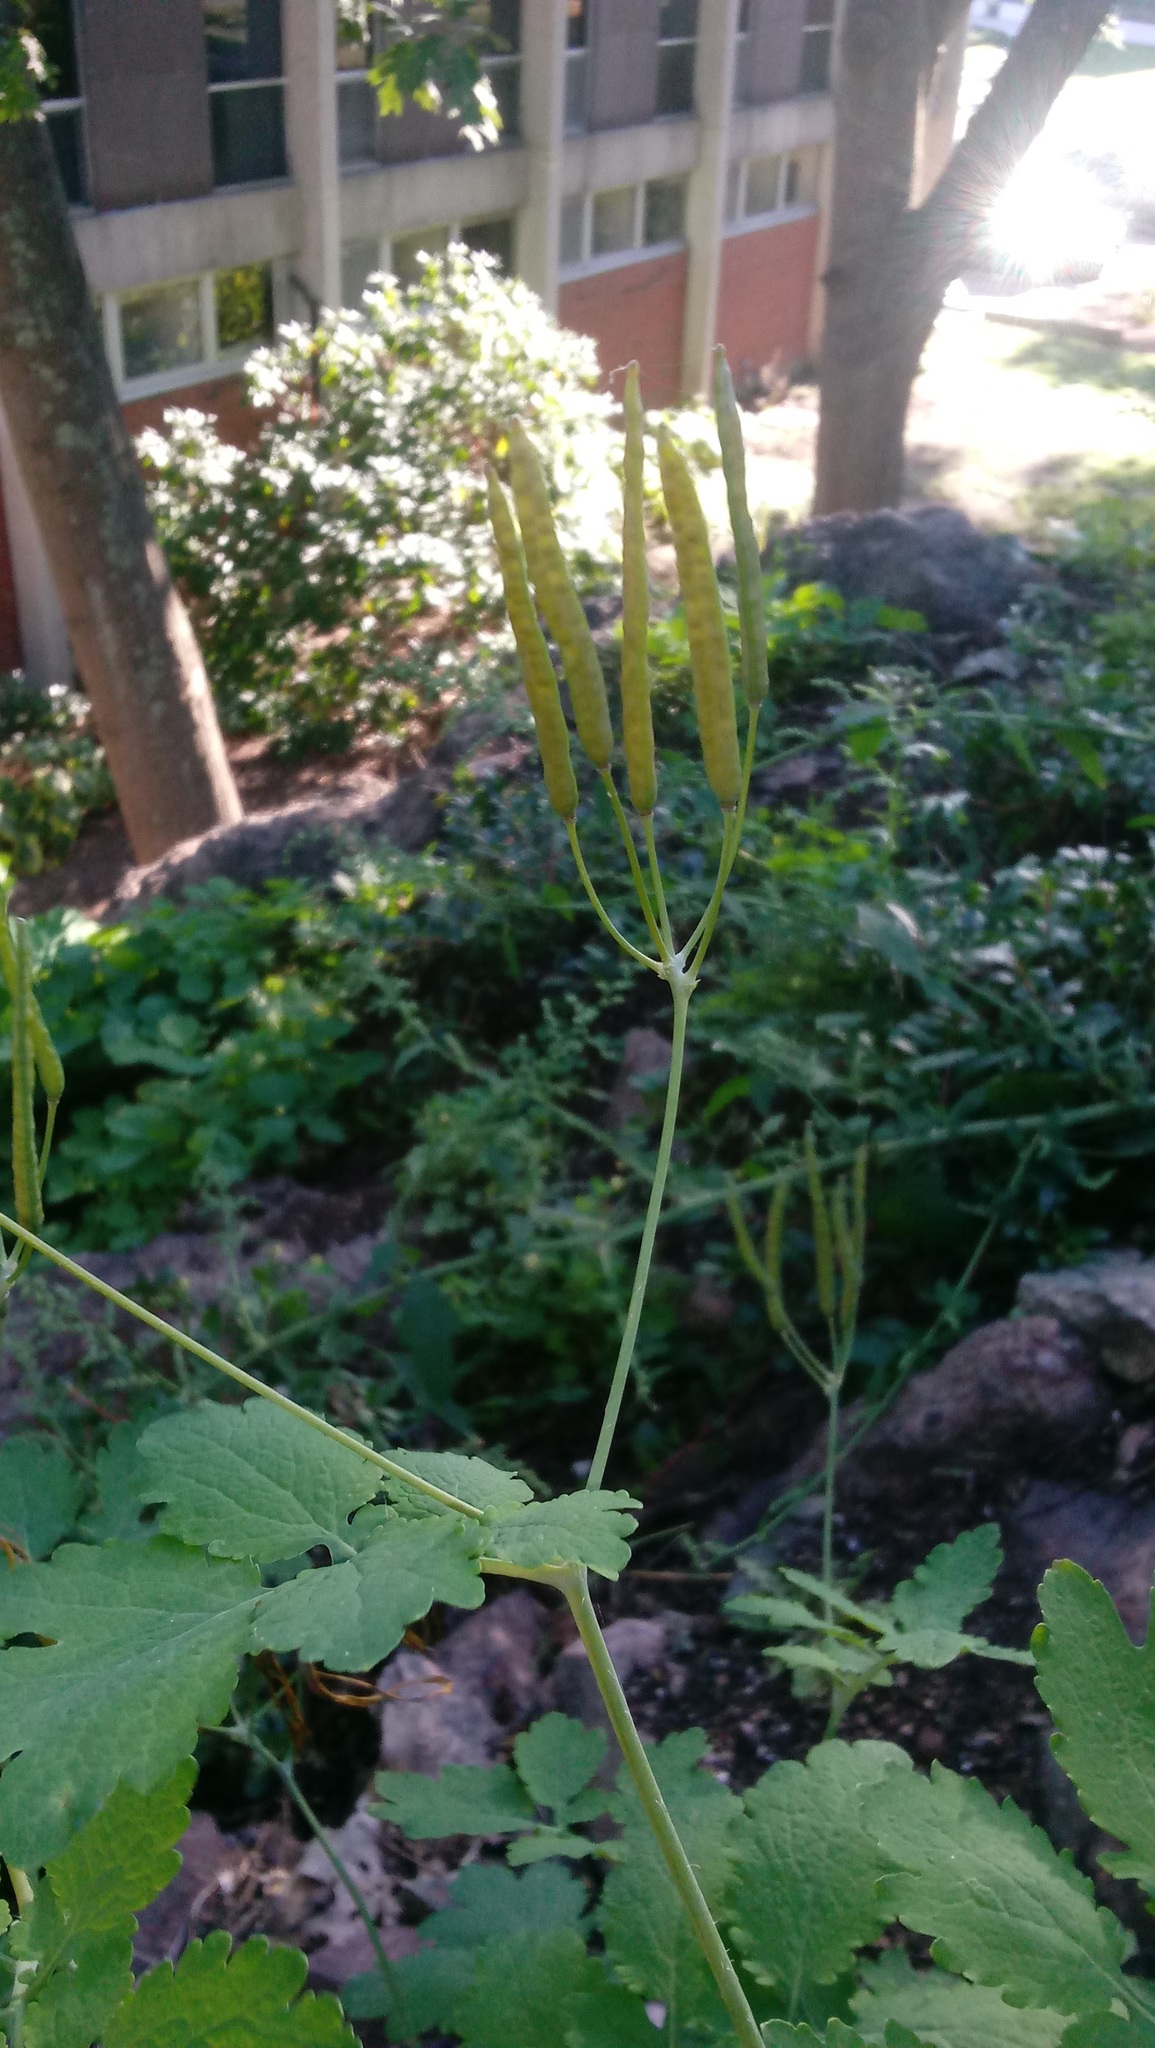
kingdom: Plantae
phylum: Tracheophyta
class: Magnoliopsida
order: Ranunculales
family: Papaveraceae
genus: Chelidonium
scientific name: Chelidonium majus
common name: Greater celandine
